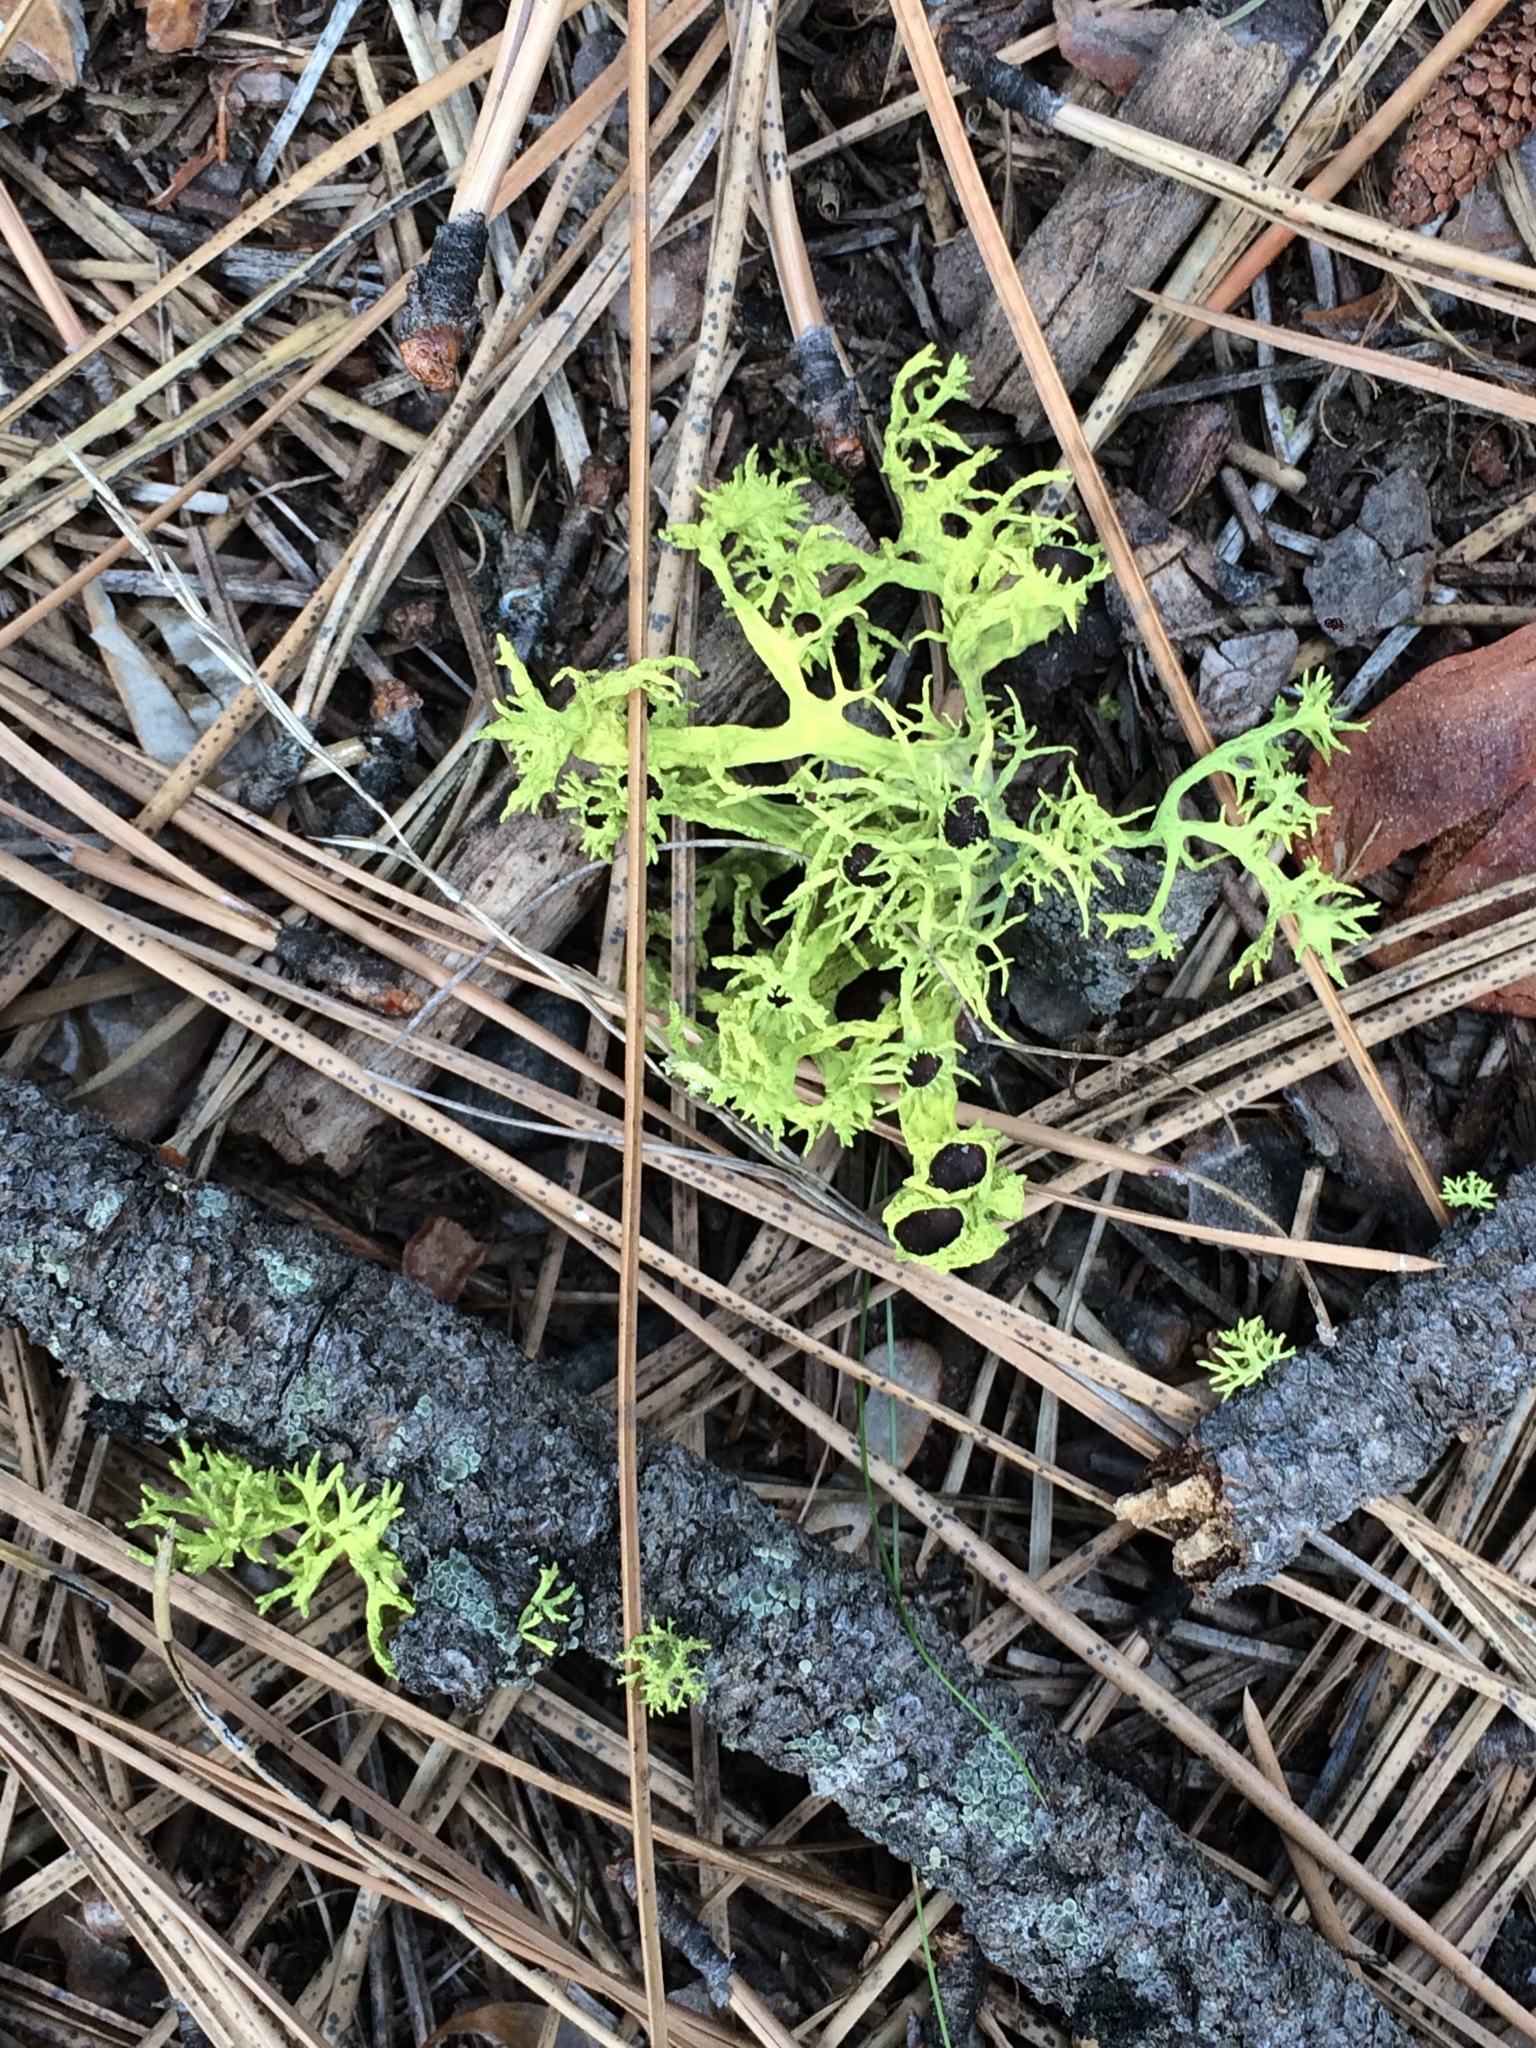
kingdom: Fungi
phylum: Ascomycota
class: Lecanoromycetes
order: Lecanorales
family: Parmeliaceae
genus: Letharia
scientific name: Letharia columbiana
